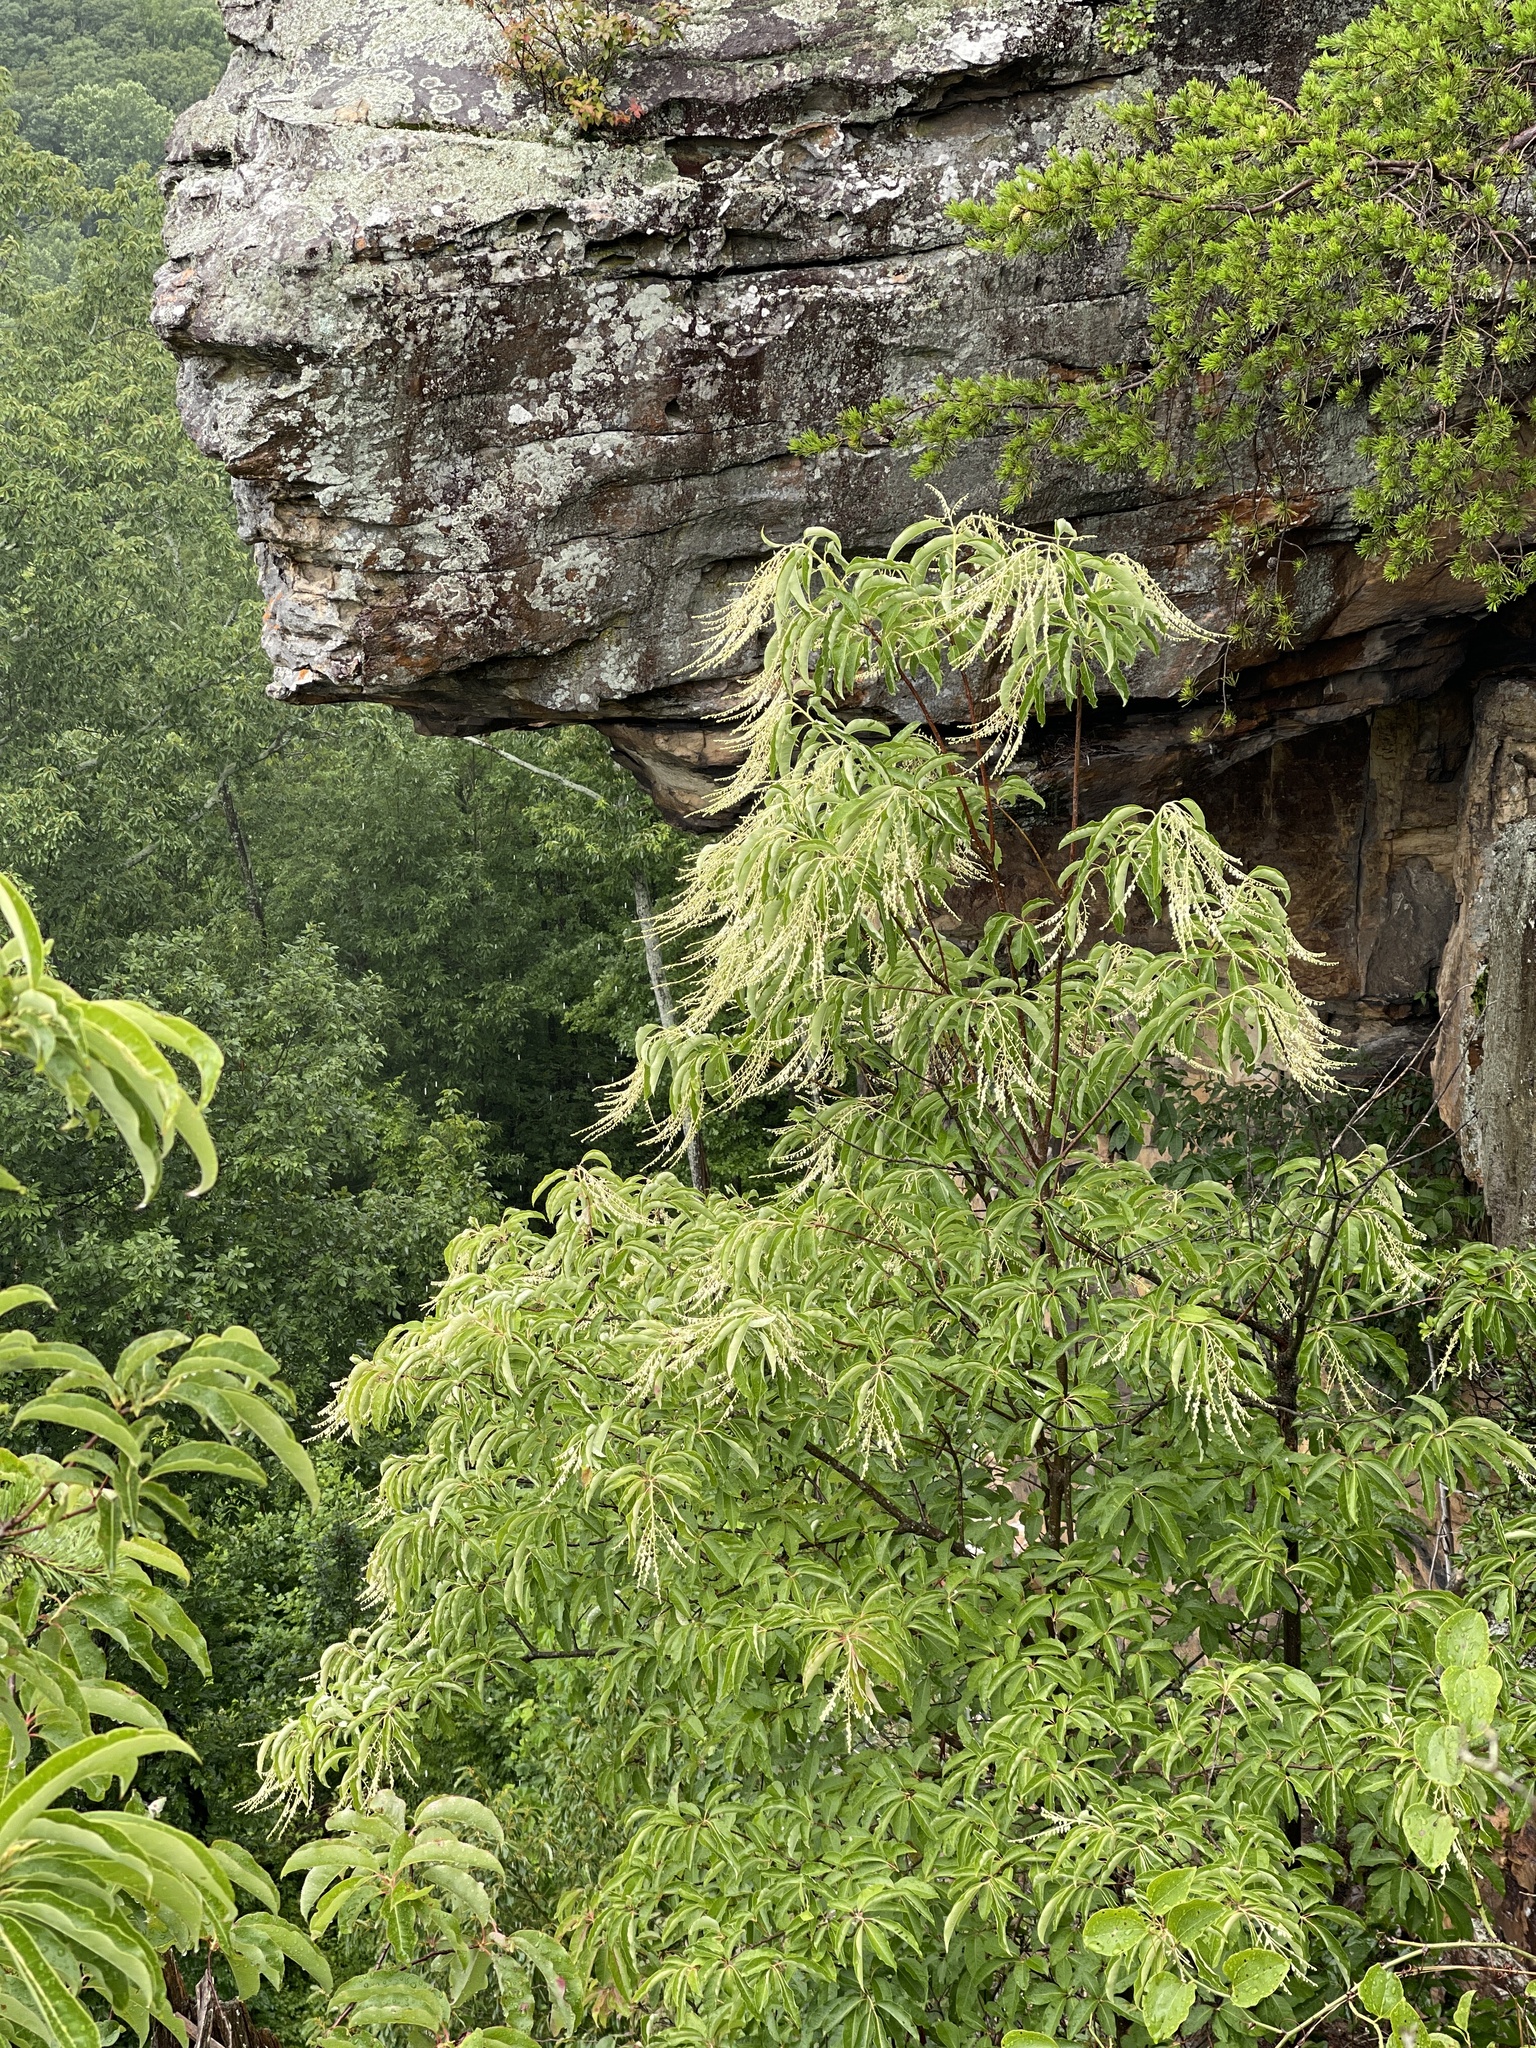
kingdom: Plantae
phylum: Tracheophyta
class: Magnoliopsida
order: Ericales
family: Ericaceae
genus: Oxydendrum
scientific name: Oxydendrum arboreum
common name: Sourwood
